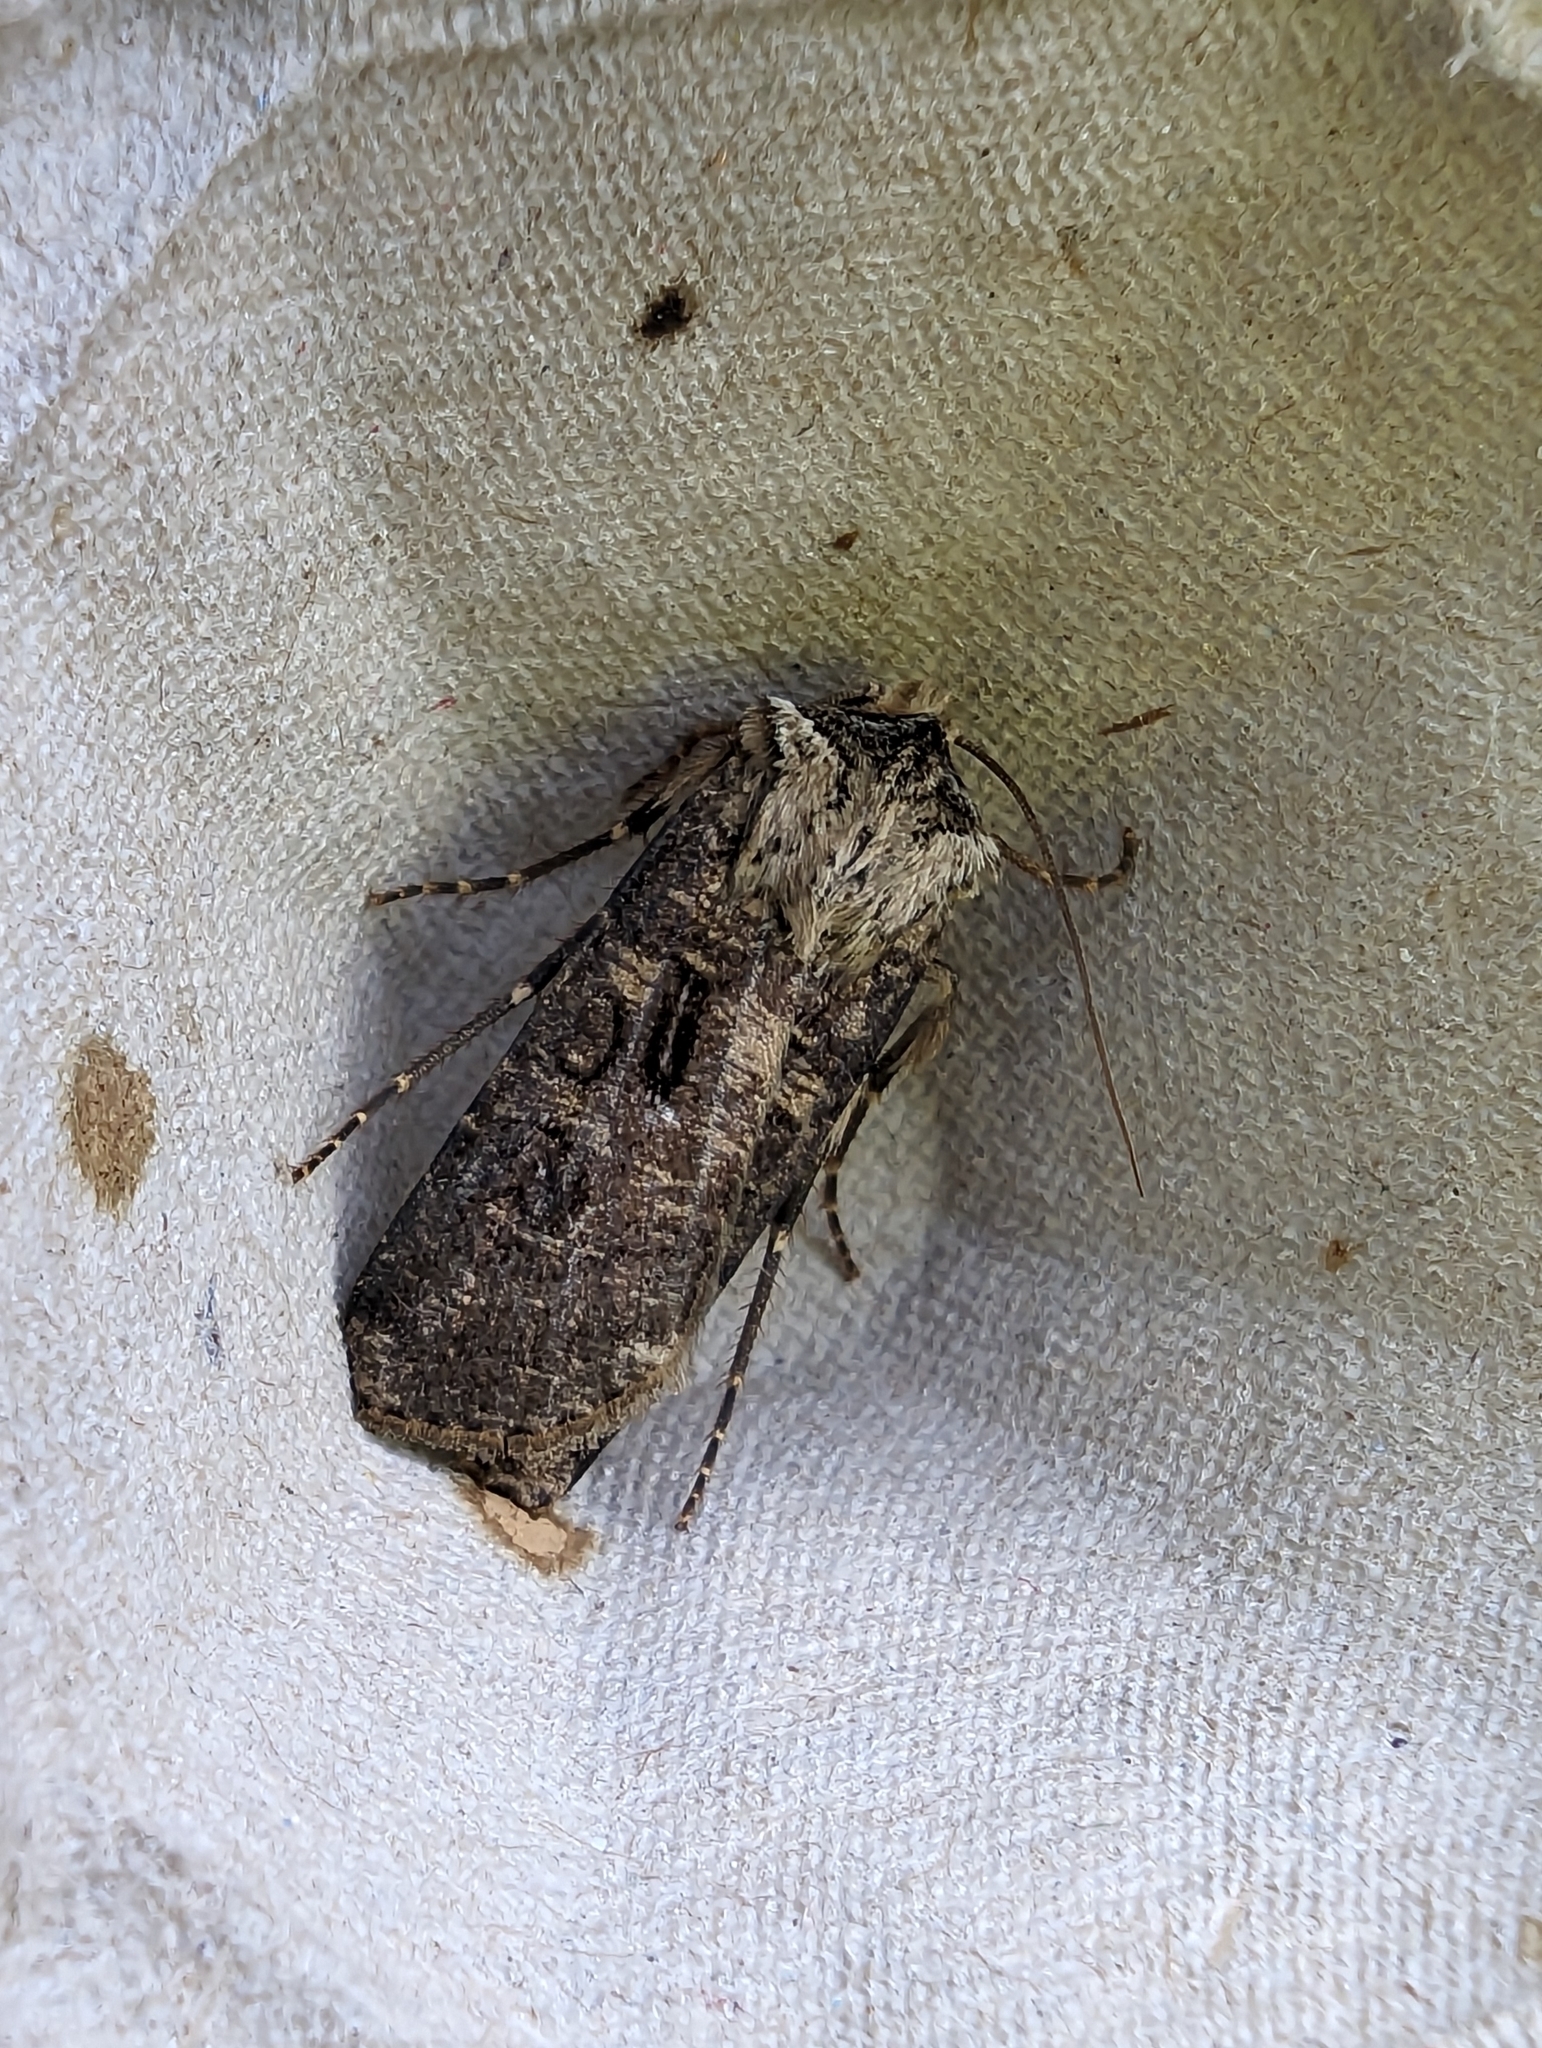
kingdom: Animalia
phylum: Arthropoda
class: Insecta
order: Lepidoptera
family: Noctuidae
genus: Agrotis
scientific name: Agrotis clavis
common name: Heart and club
